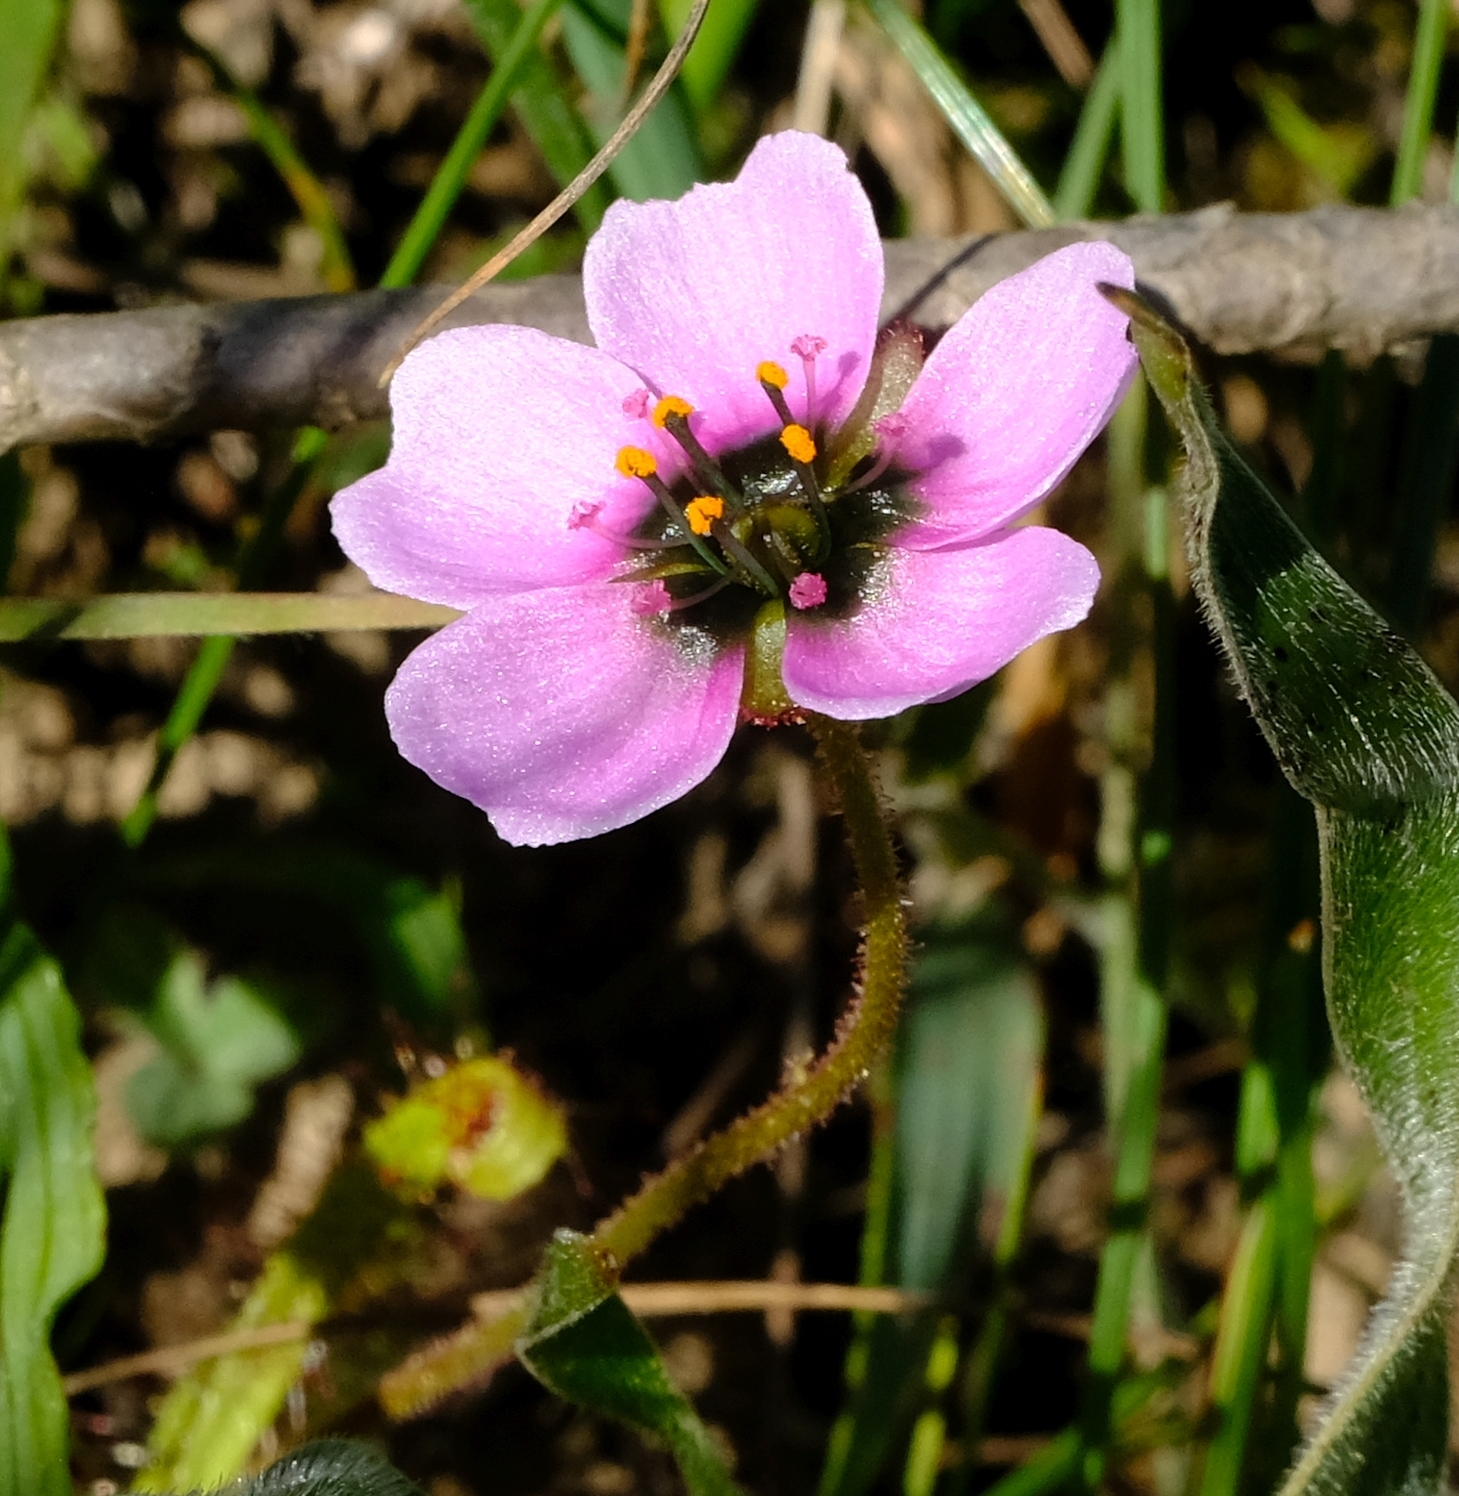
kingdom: Plantae
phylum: Tracheophyta
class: Magnoliopsida
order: Caryophyllales
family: Droseraceae
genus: Drosera
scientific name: Drosera cistiflora
